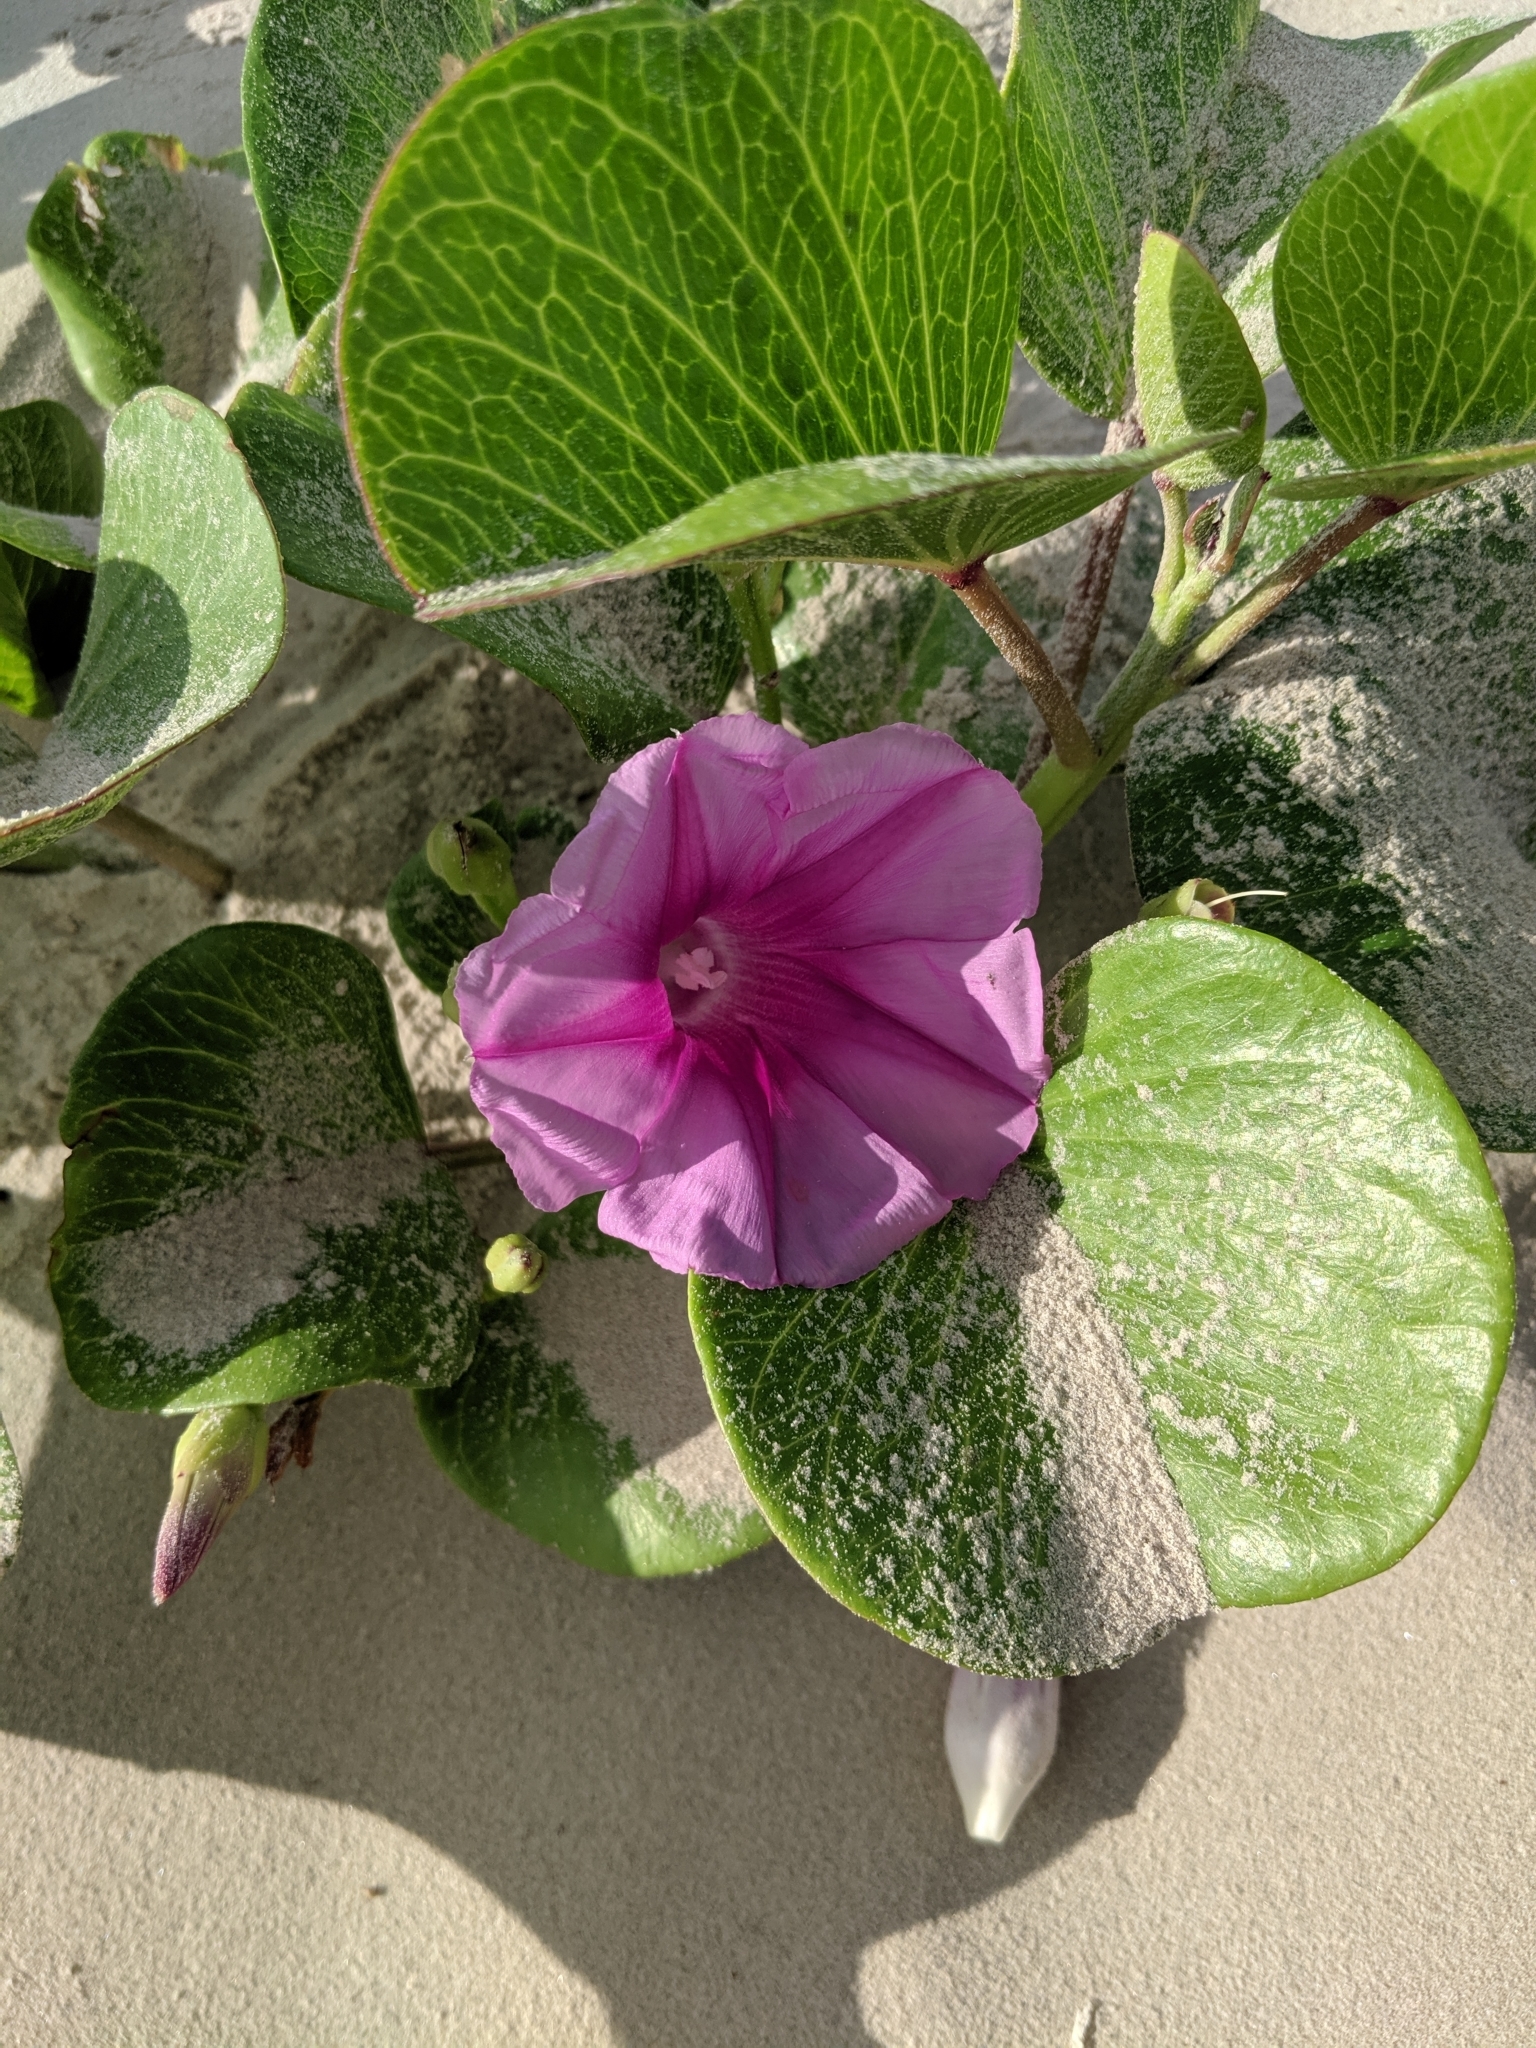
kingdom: Plantae
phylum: Tracheophyta
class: Magnoliopsida
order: Solanales
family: Convolvulaceae
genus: Ipomoea
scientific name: Ipomoea pes-caprae
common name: Beach morning glory
